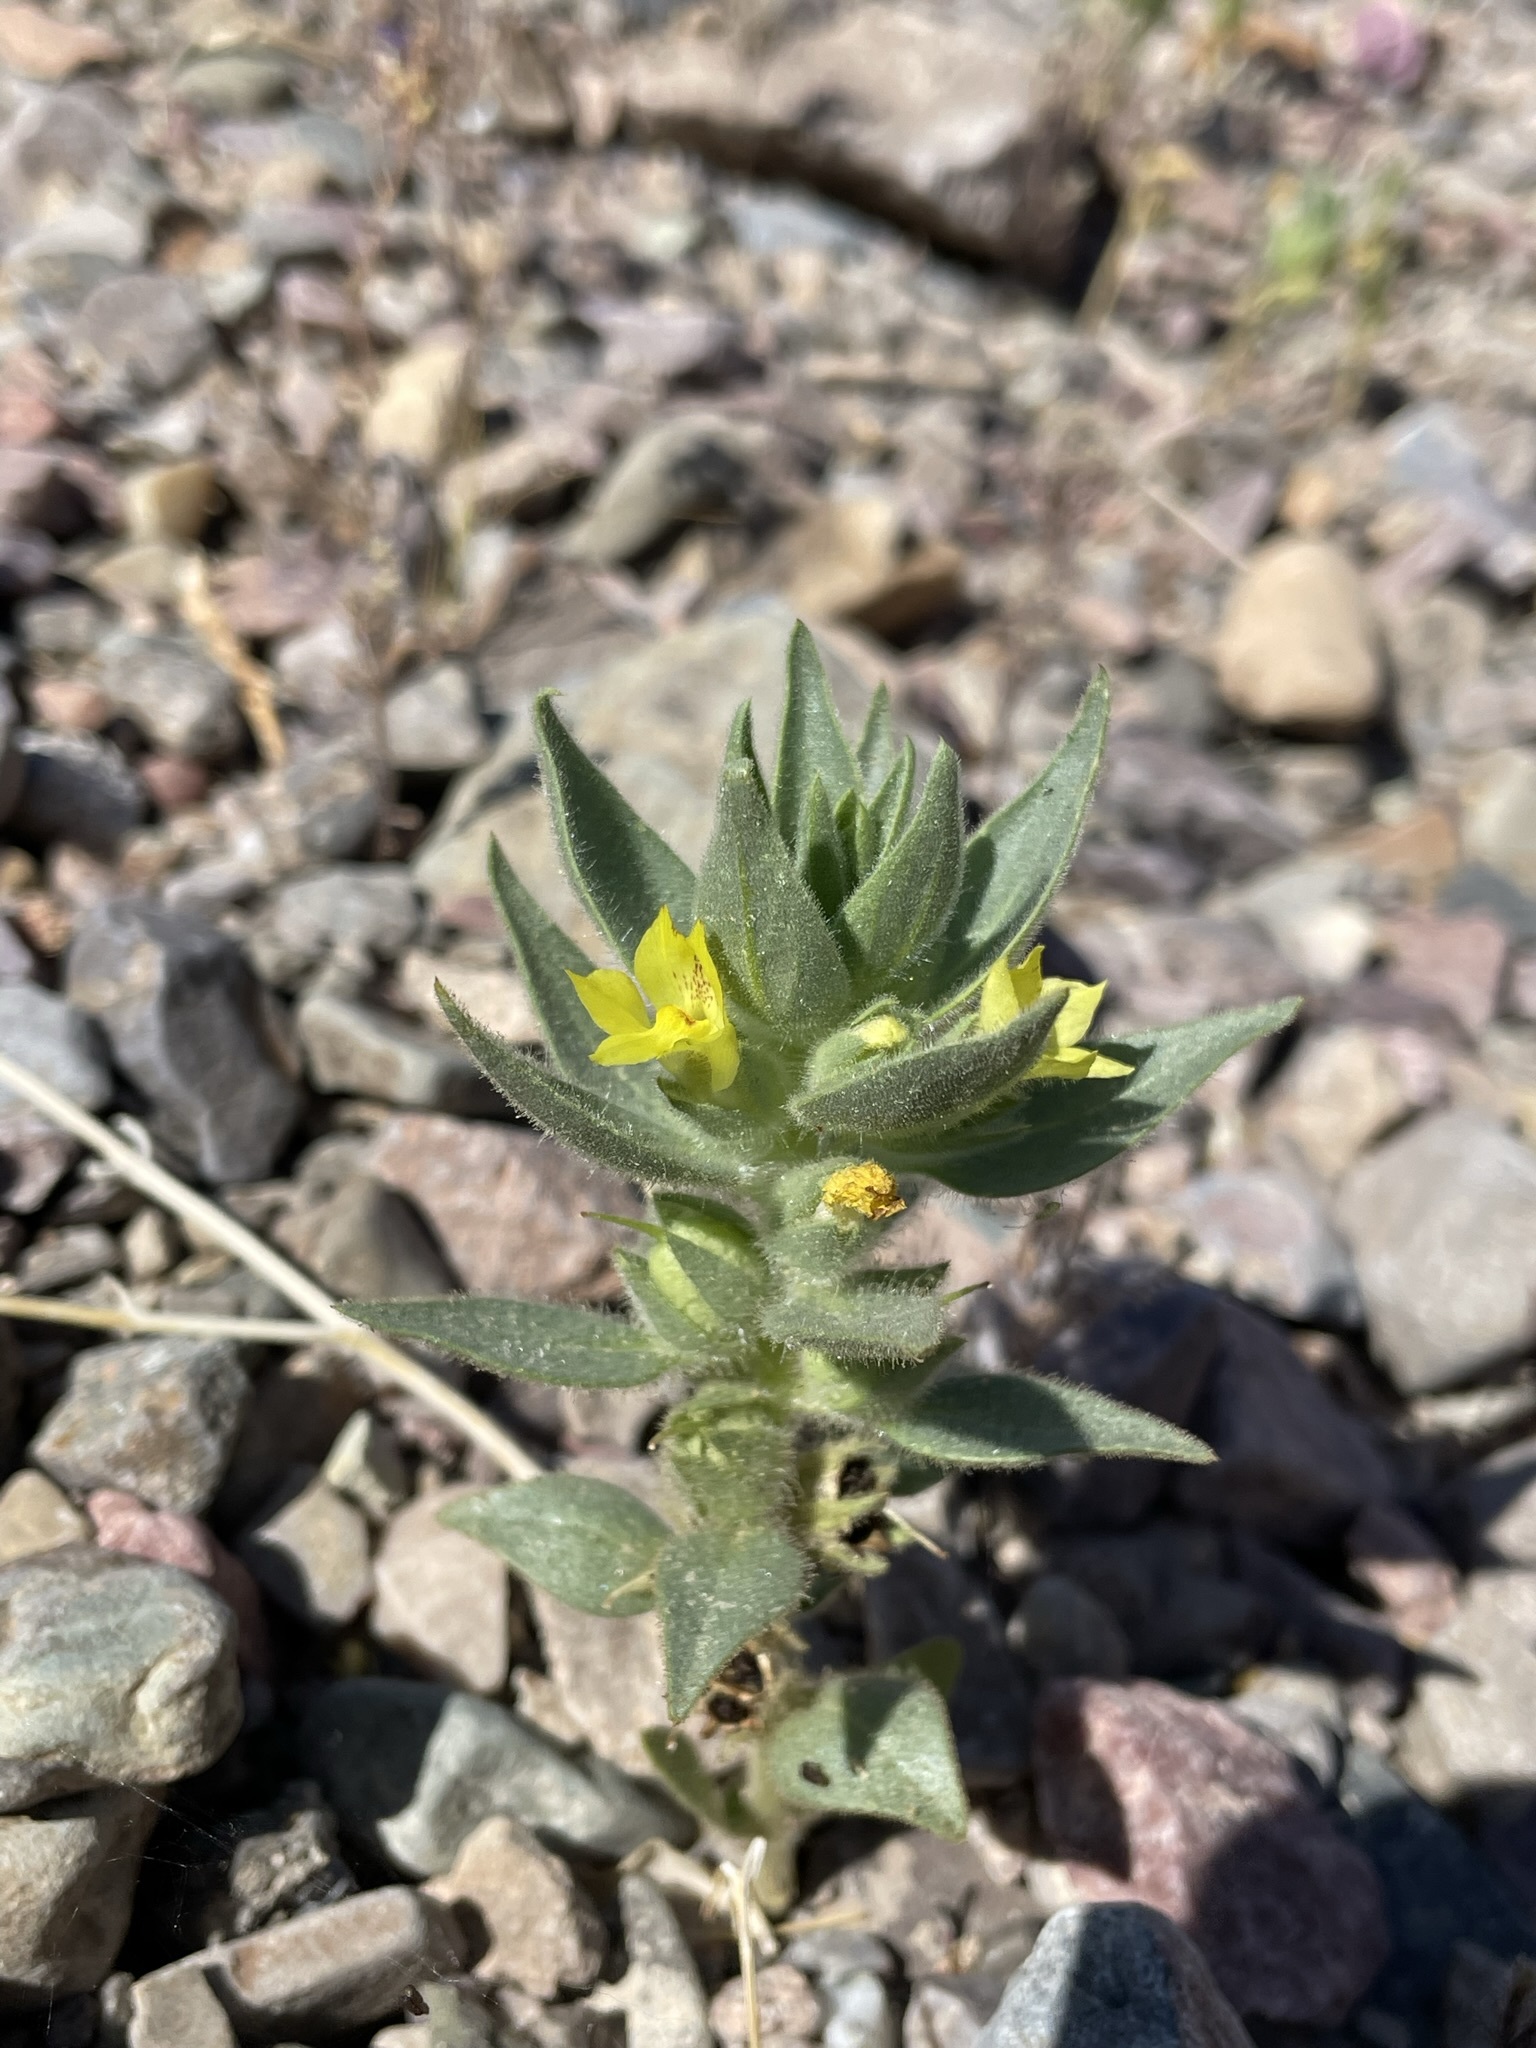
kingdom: Plantae
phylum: Tracheophyta
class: Magnoliopsida
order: Lamiales
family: Plantaginaceae
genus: Mohavea
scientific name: Mohavea breviflora
